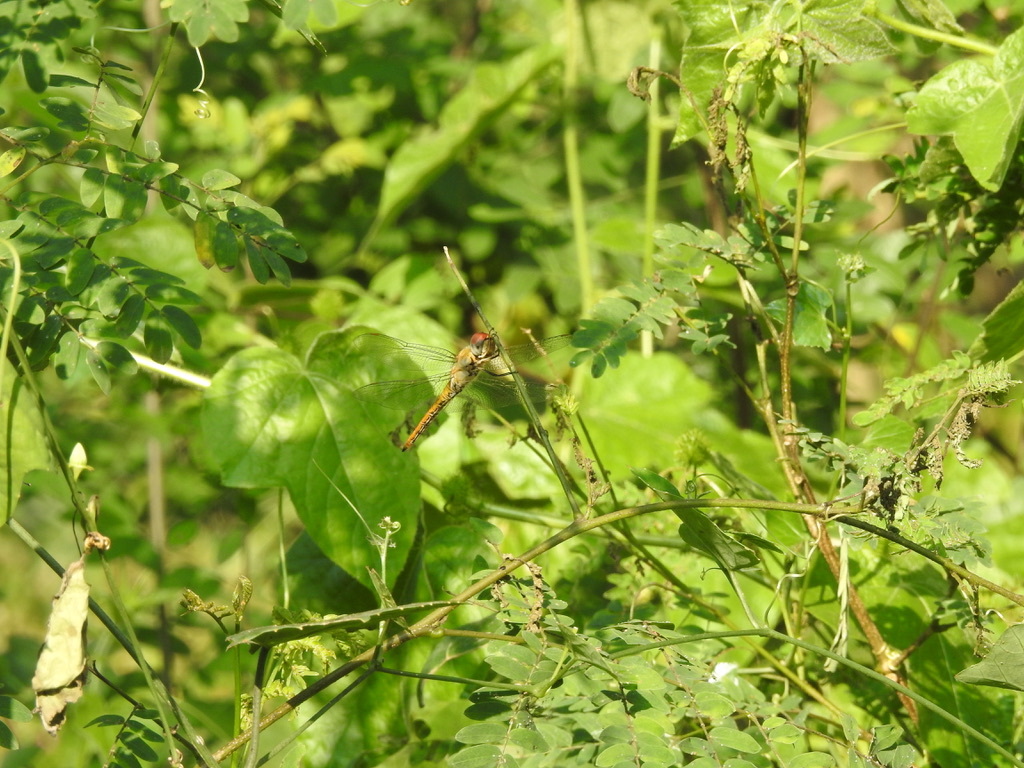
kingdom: Animalia
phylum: Arthropoda
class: Insecta
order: Odonata
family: Libellulidae
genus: Pantala
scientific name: Pantala flavescens
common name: Wandering glider
